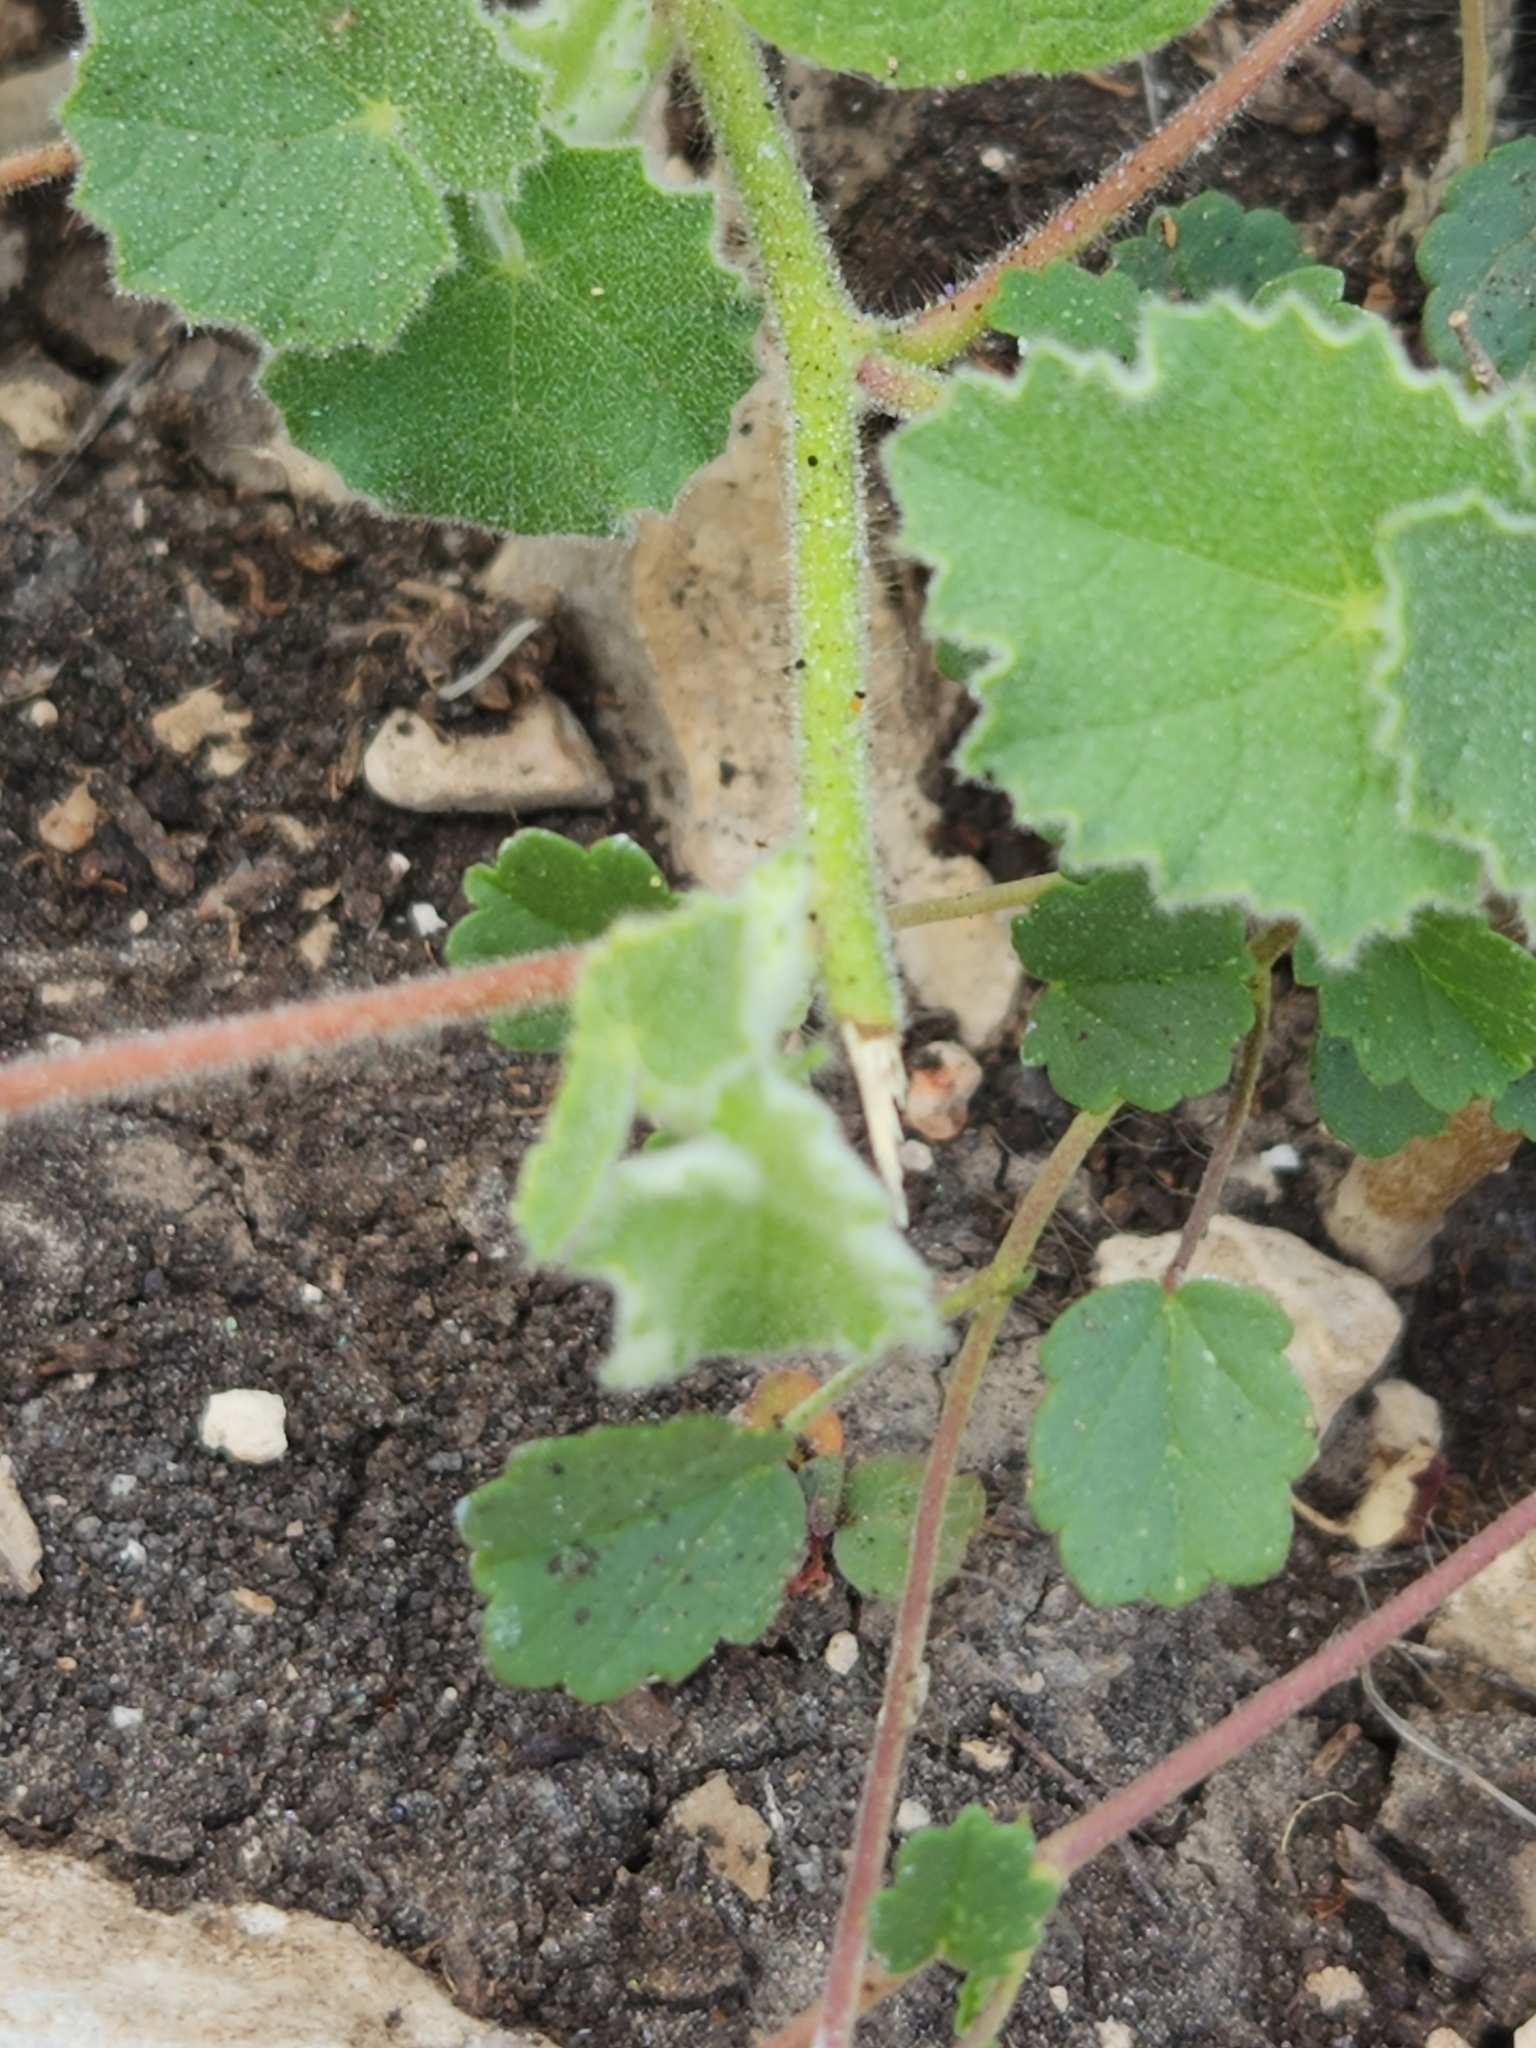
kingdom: Plantae
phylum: Tracheophyta
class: Magnoliopsida
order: Malvales
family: Malvaceae
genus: Abutilon
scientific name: Abutilon wrightii
